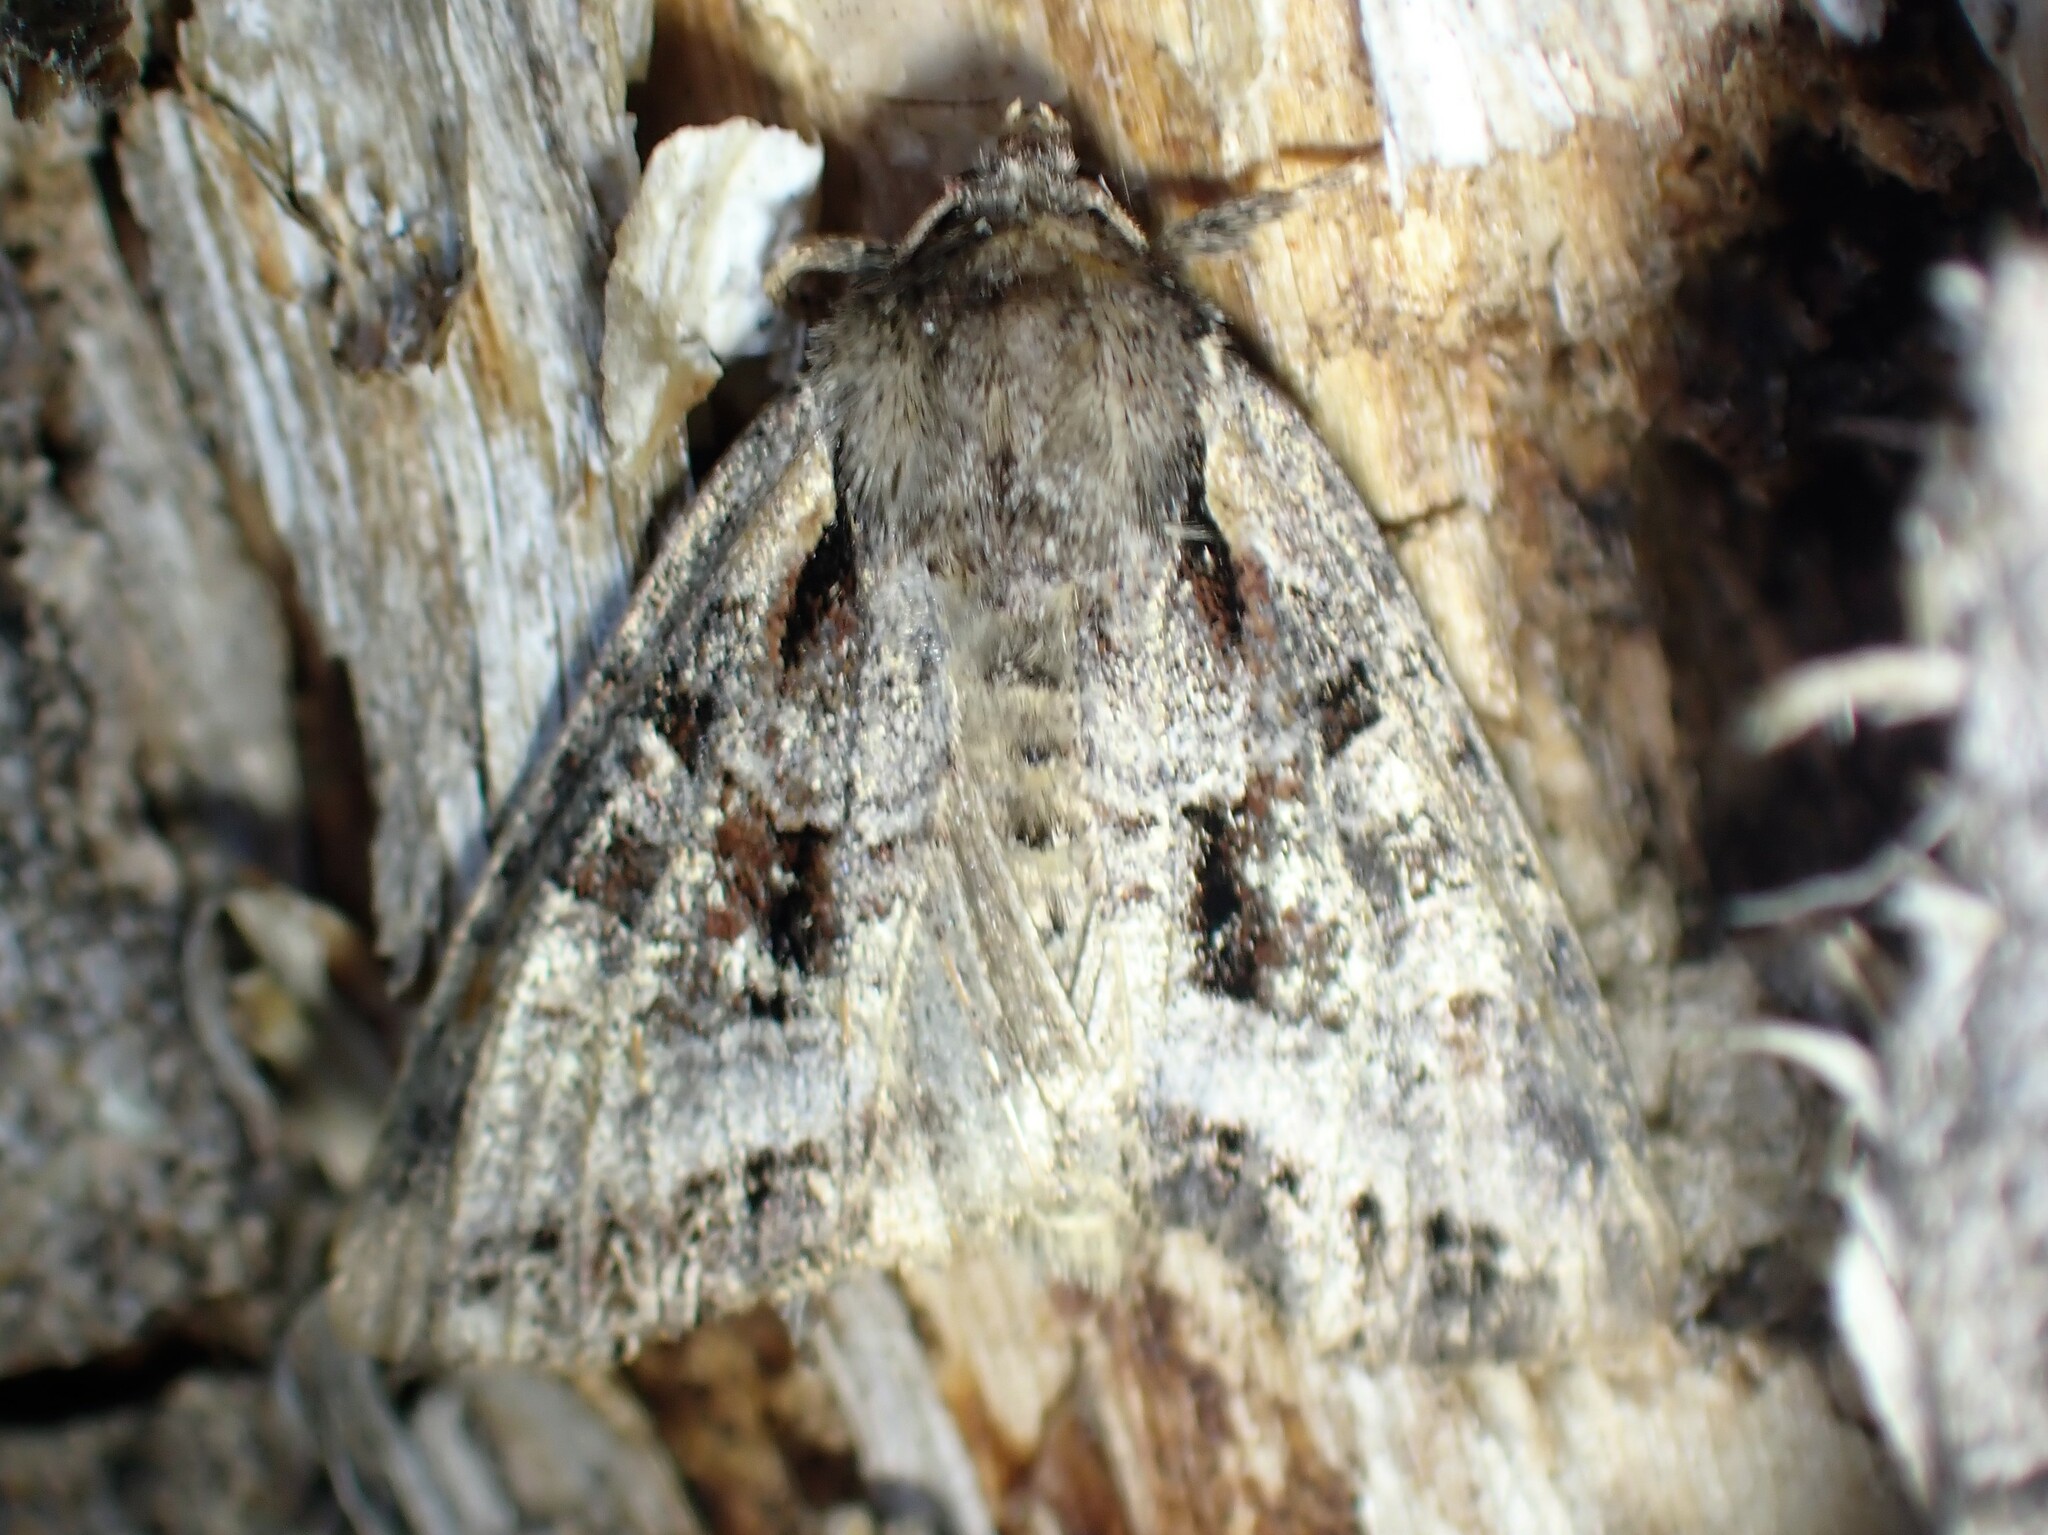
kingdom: Animalia
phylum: Arthropoda
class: Insecta
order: Lepidoptera
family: Noctuidae
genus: Lacanobia
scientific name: Lacanobia grandis
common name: Grand arches moth
